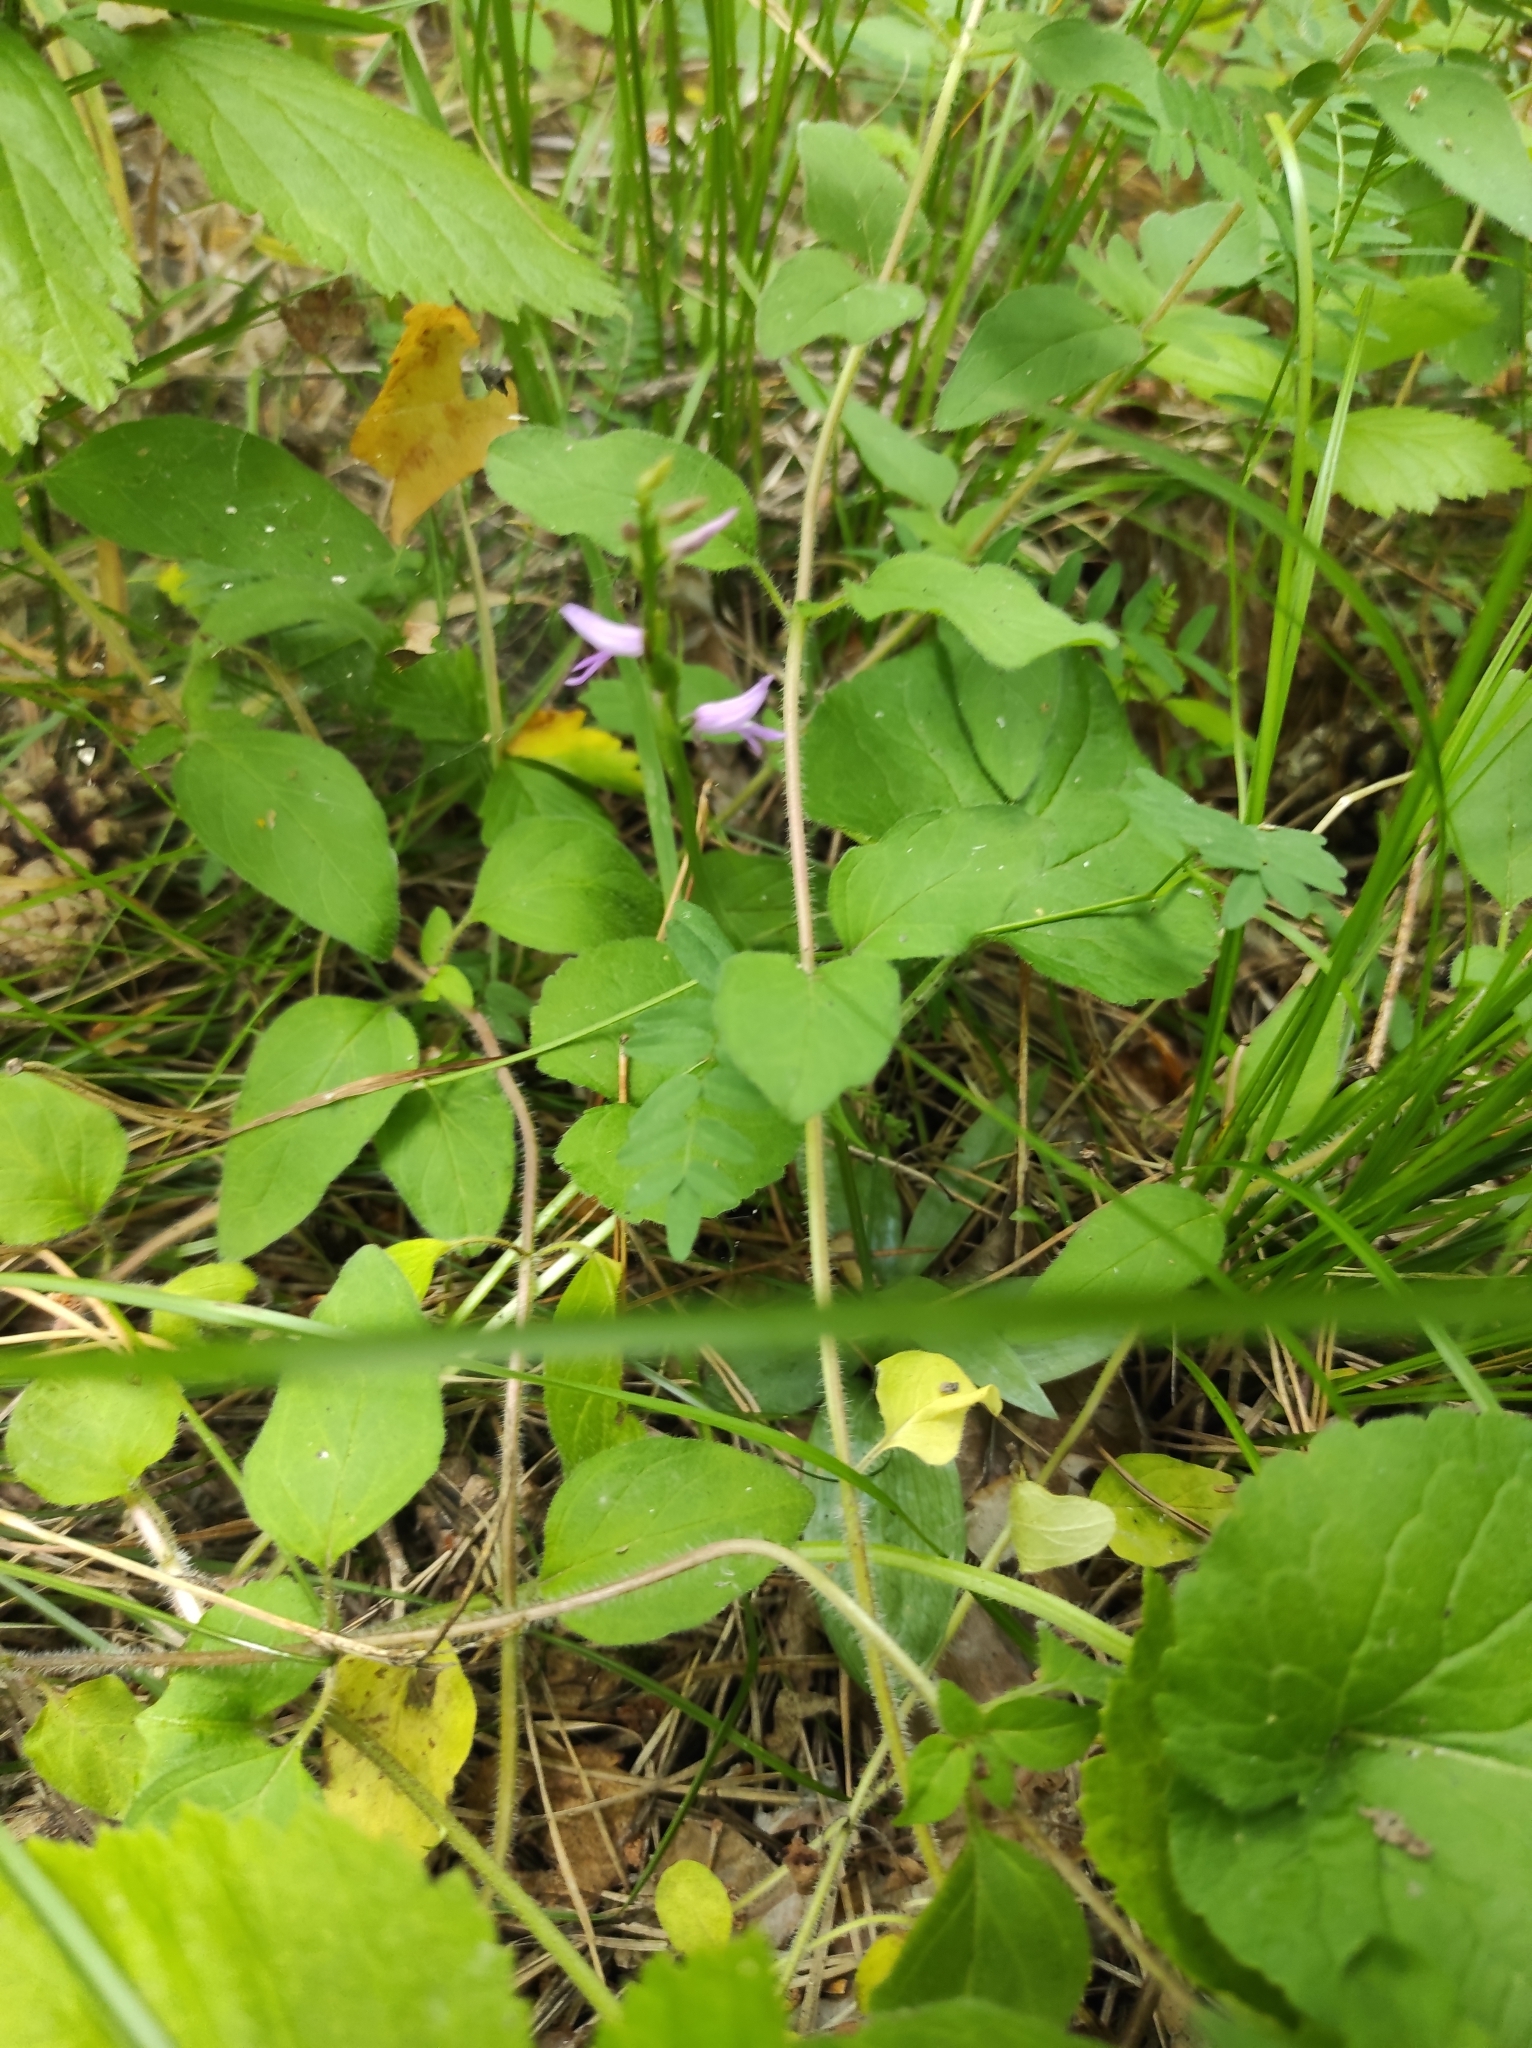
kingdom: Plantae
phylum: Tracheophyta
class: Liliopsida
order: Asparagales
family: Orchidaceae
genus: Hemipilia
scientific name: Hemipilia cucullata
